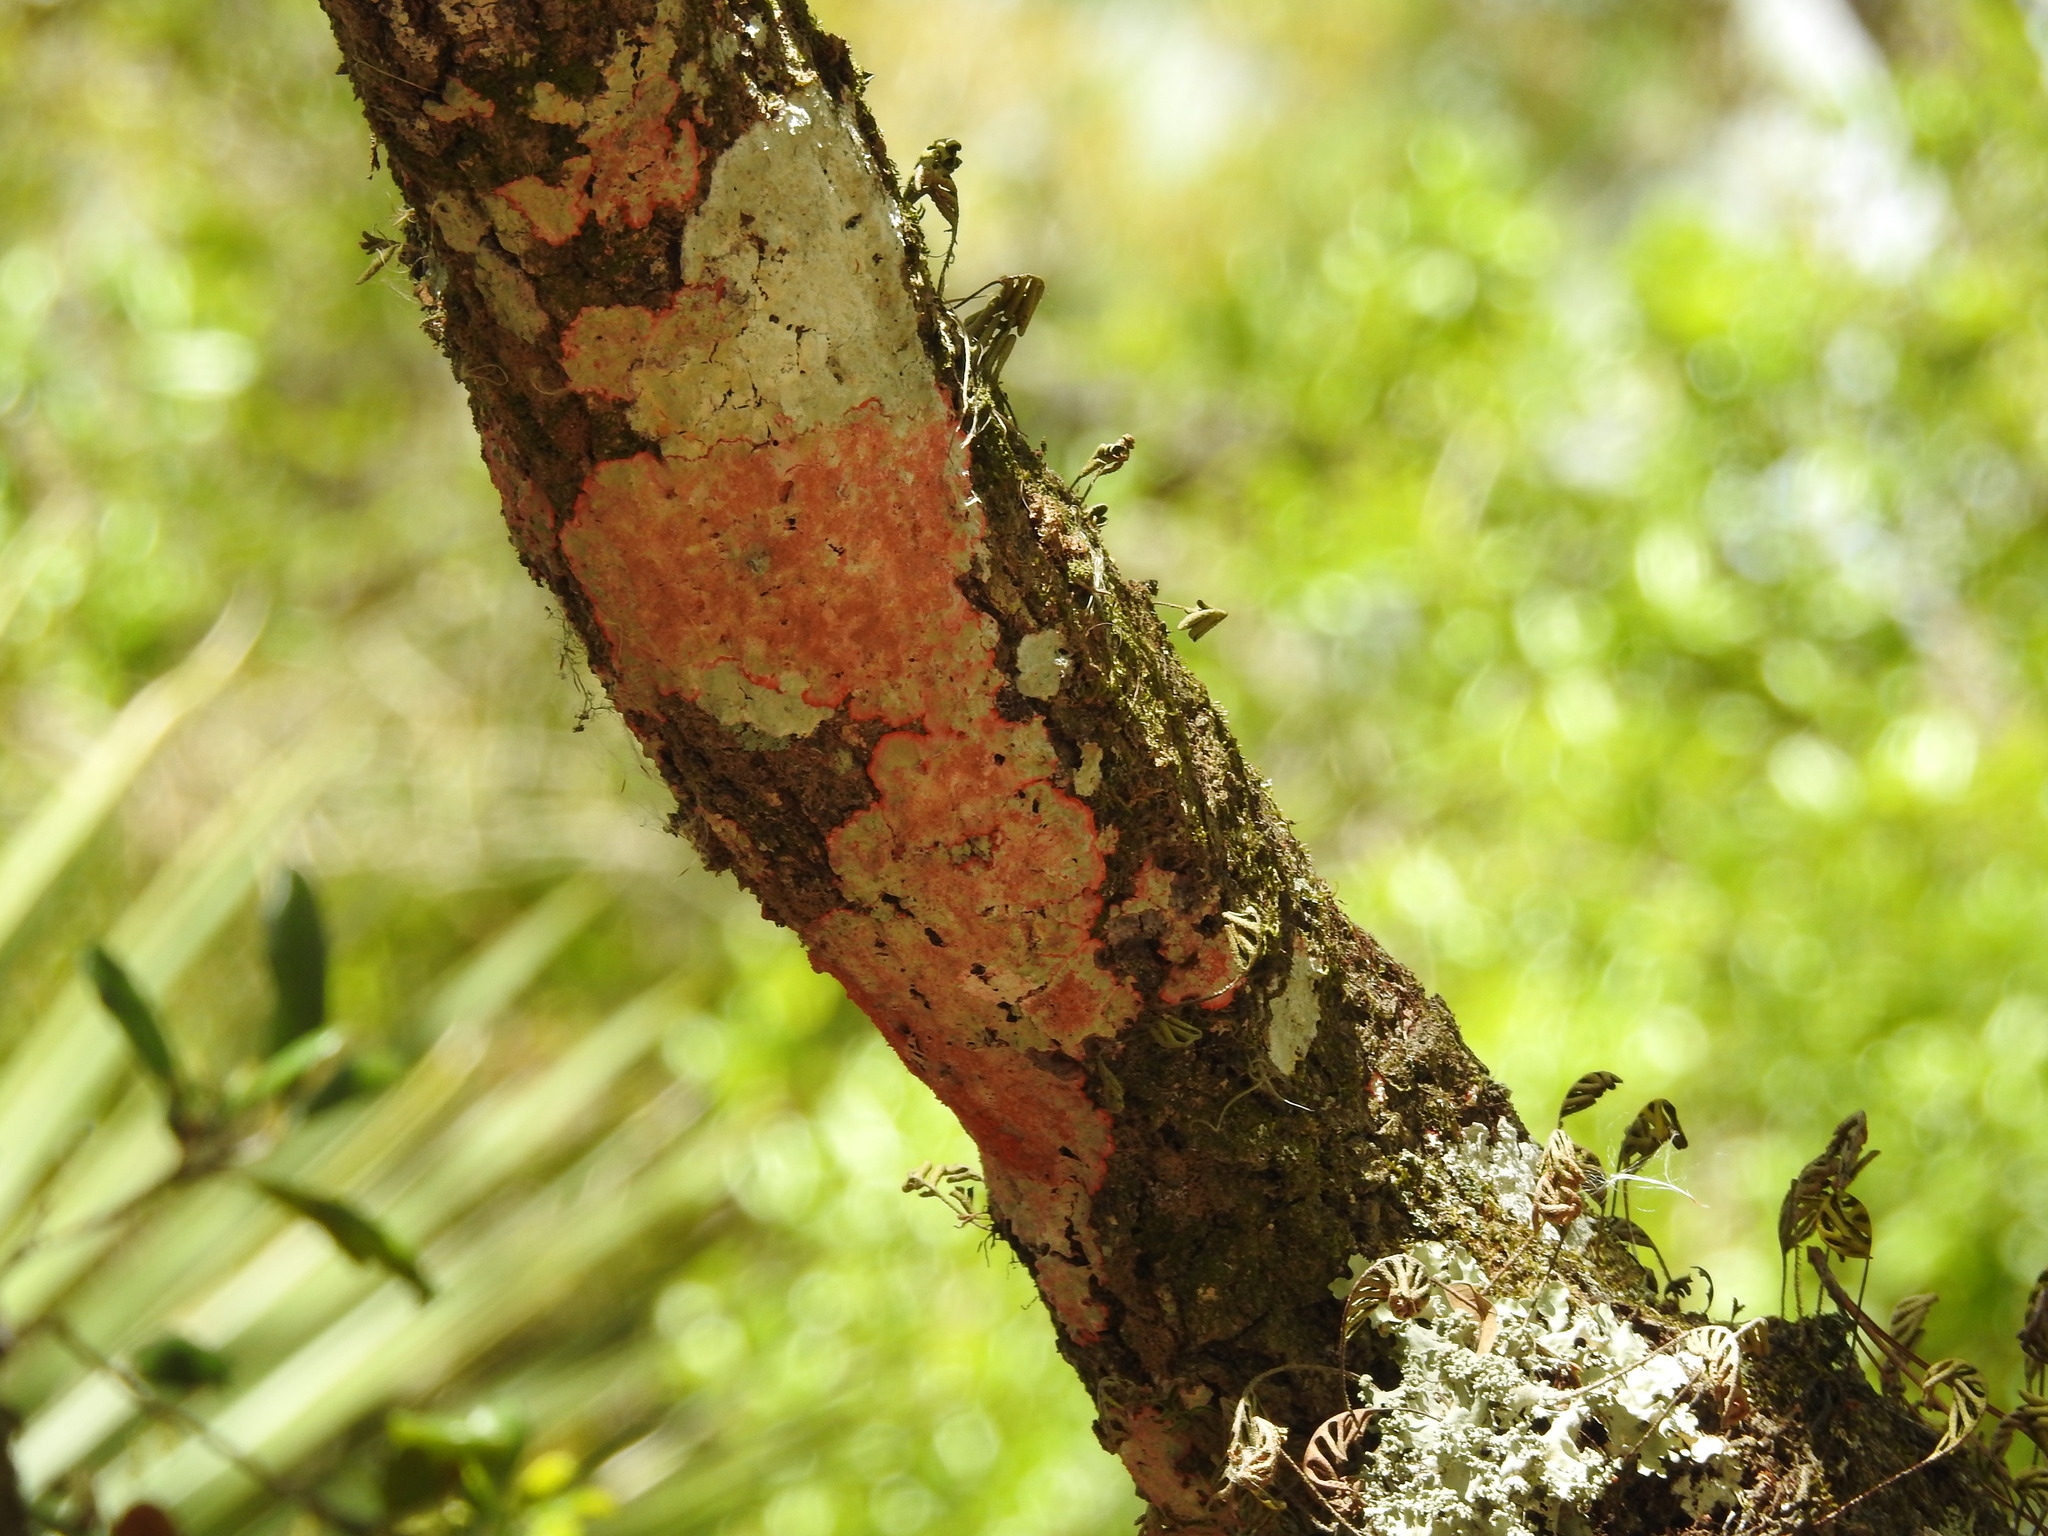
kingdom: Fungi
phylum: Ascomycota
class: Arthoniomycetes
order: Arthoniales
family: Arthoniaceae
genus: Herpothallon
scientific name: Herpothallon rubrocinctum
